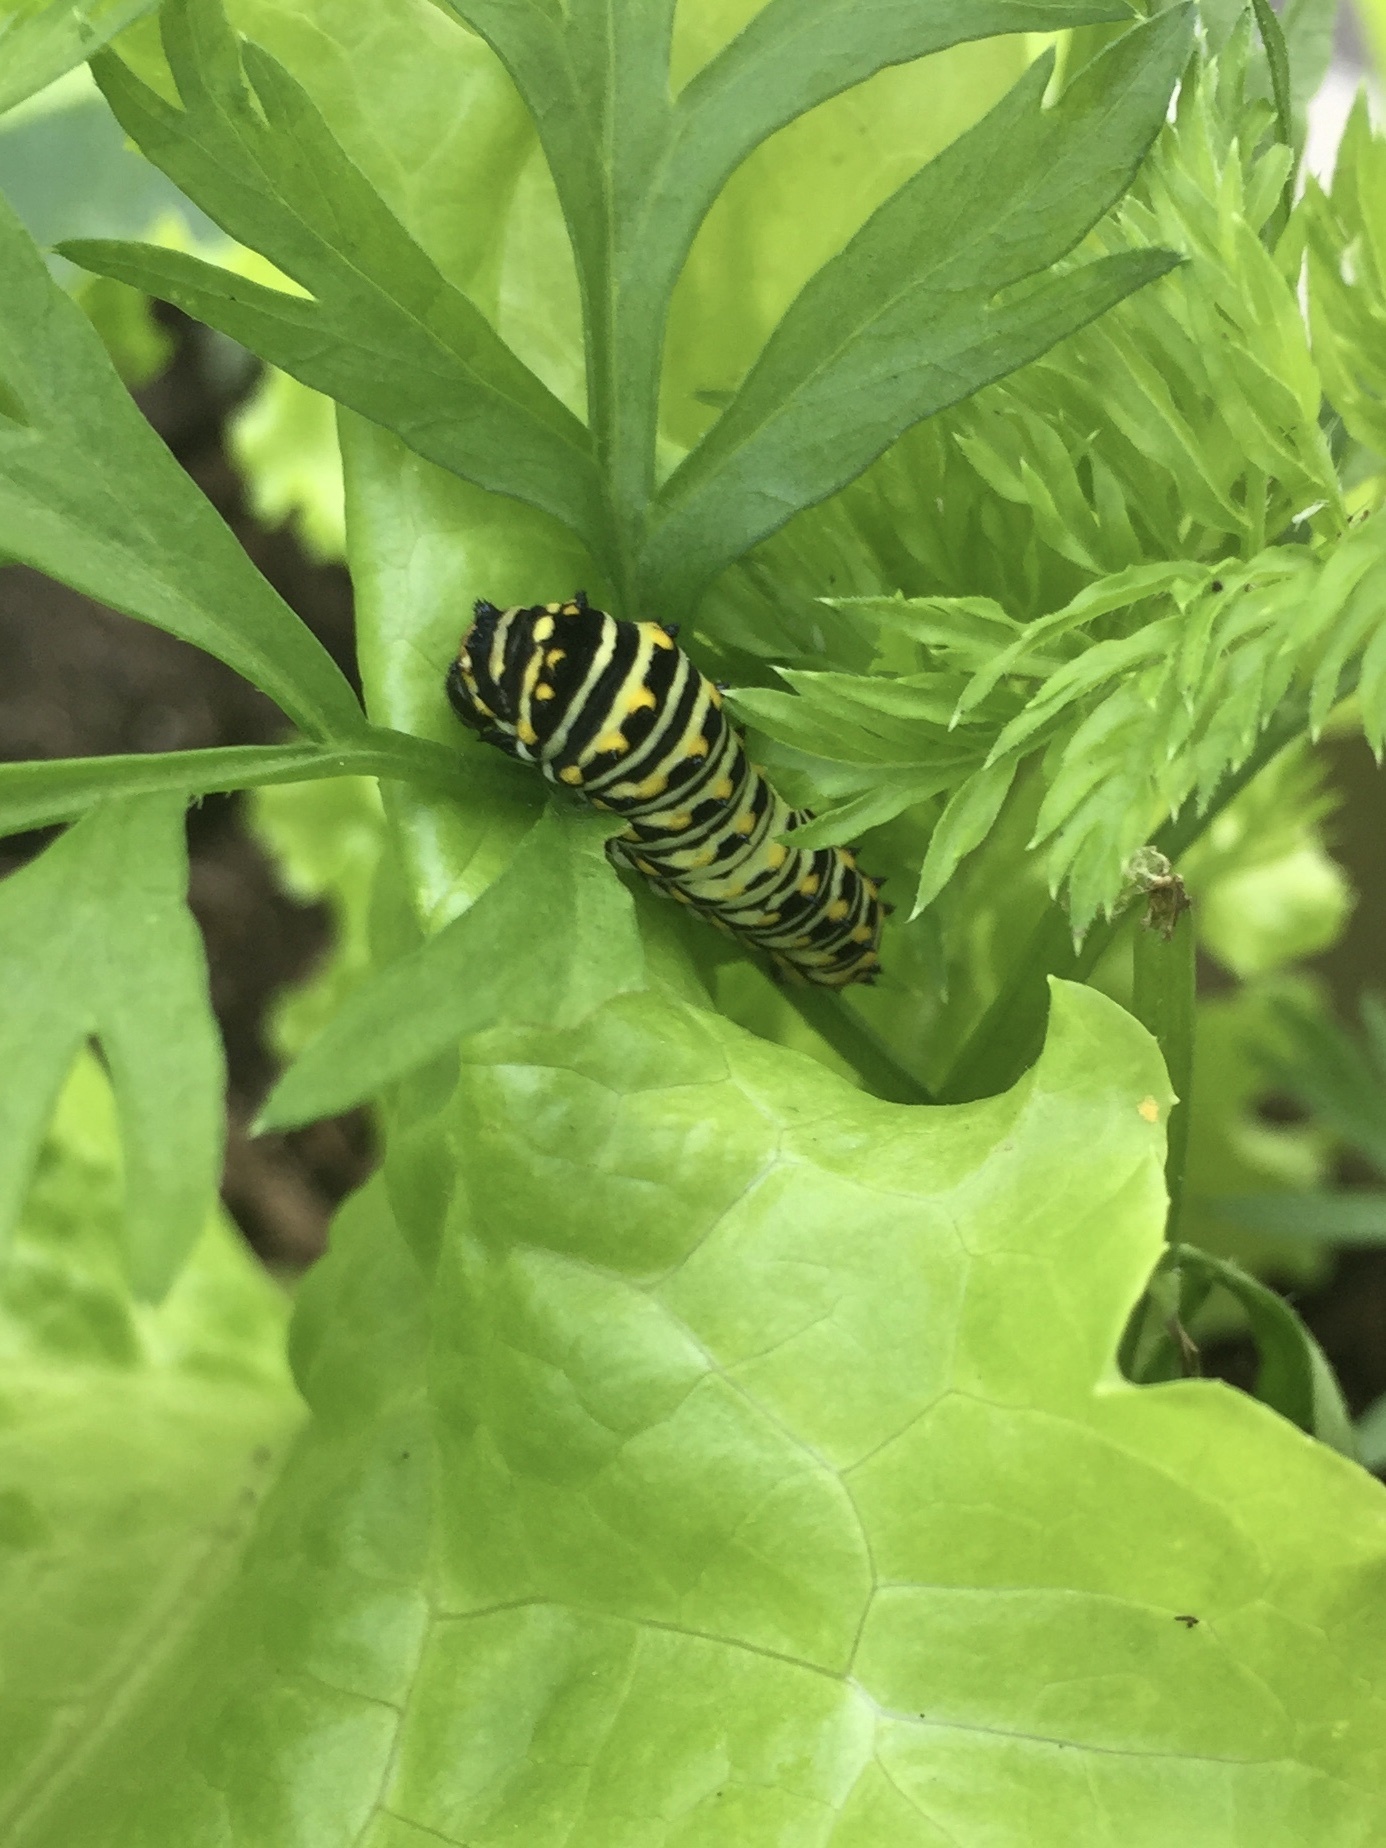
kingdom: Animalia
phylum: Arthropoda
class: Insecta
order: Lepidoptera
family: Papilionidae
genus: Papilio
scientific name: Papilio polyxenes
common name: Black swallowtail
